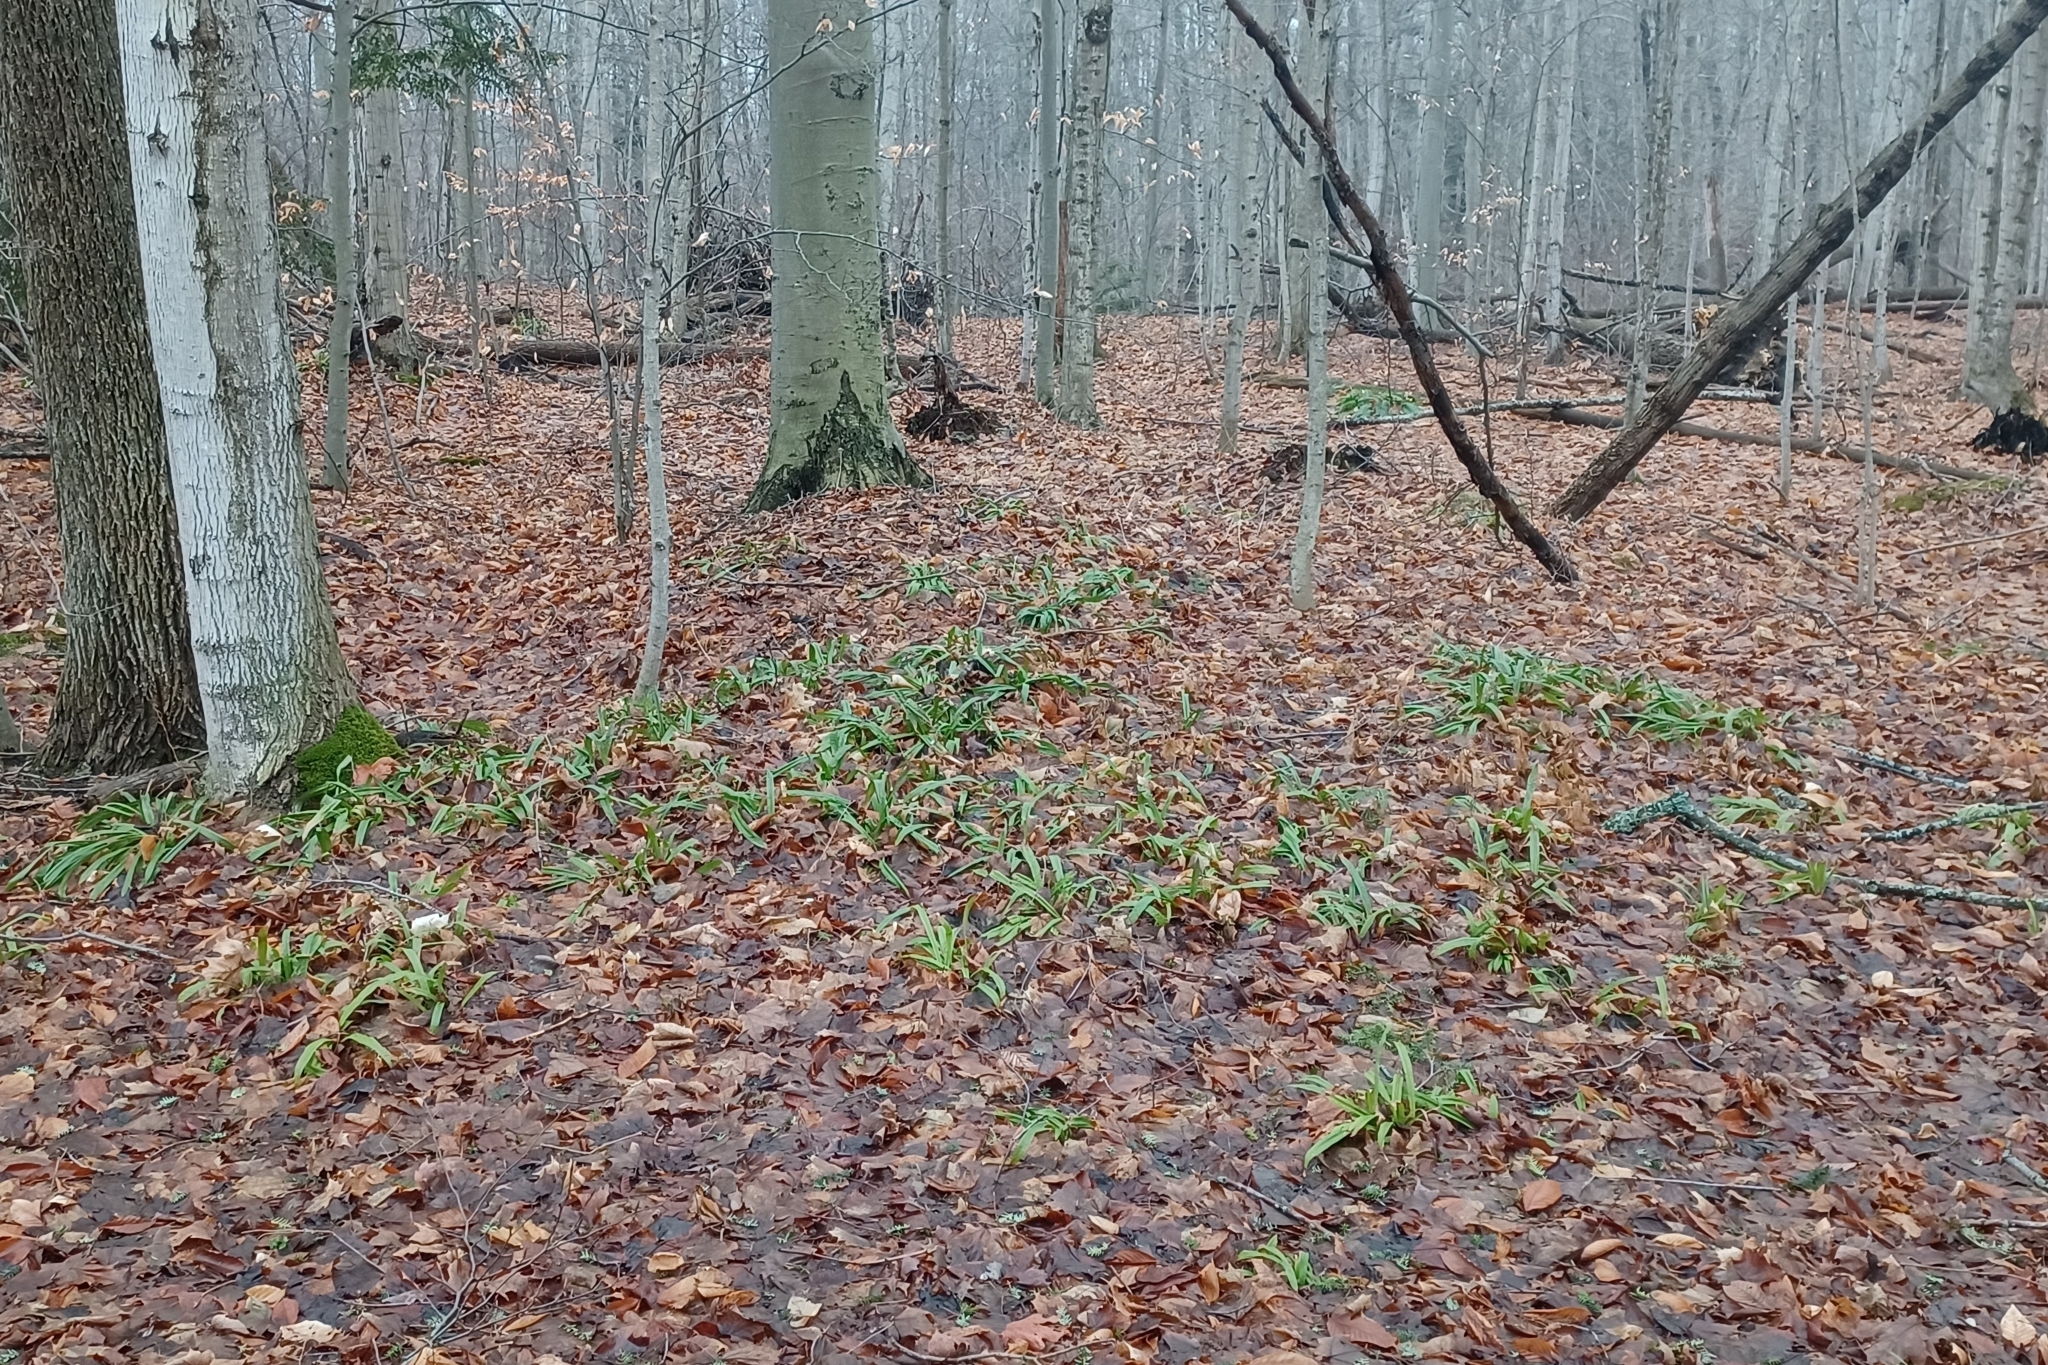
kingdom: Plantae
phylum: Tracheophyta
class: Liliopsida
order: Poales
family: Cyperaceae
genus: Carex
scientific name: Carex plantaginea
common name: Plantain-leaved sedge
